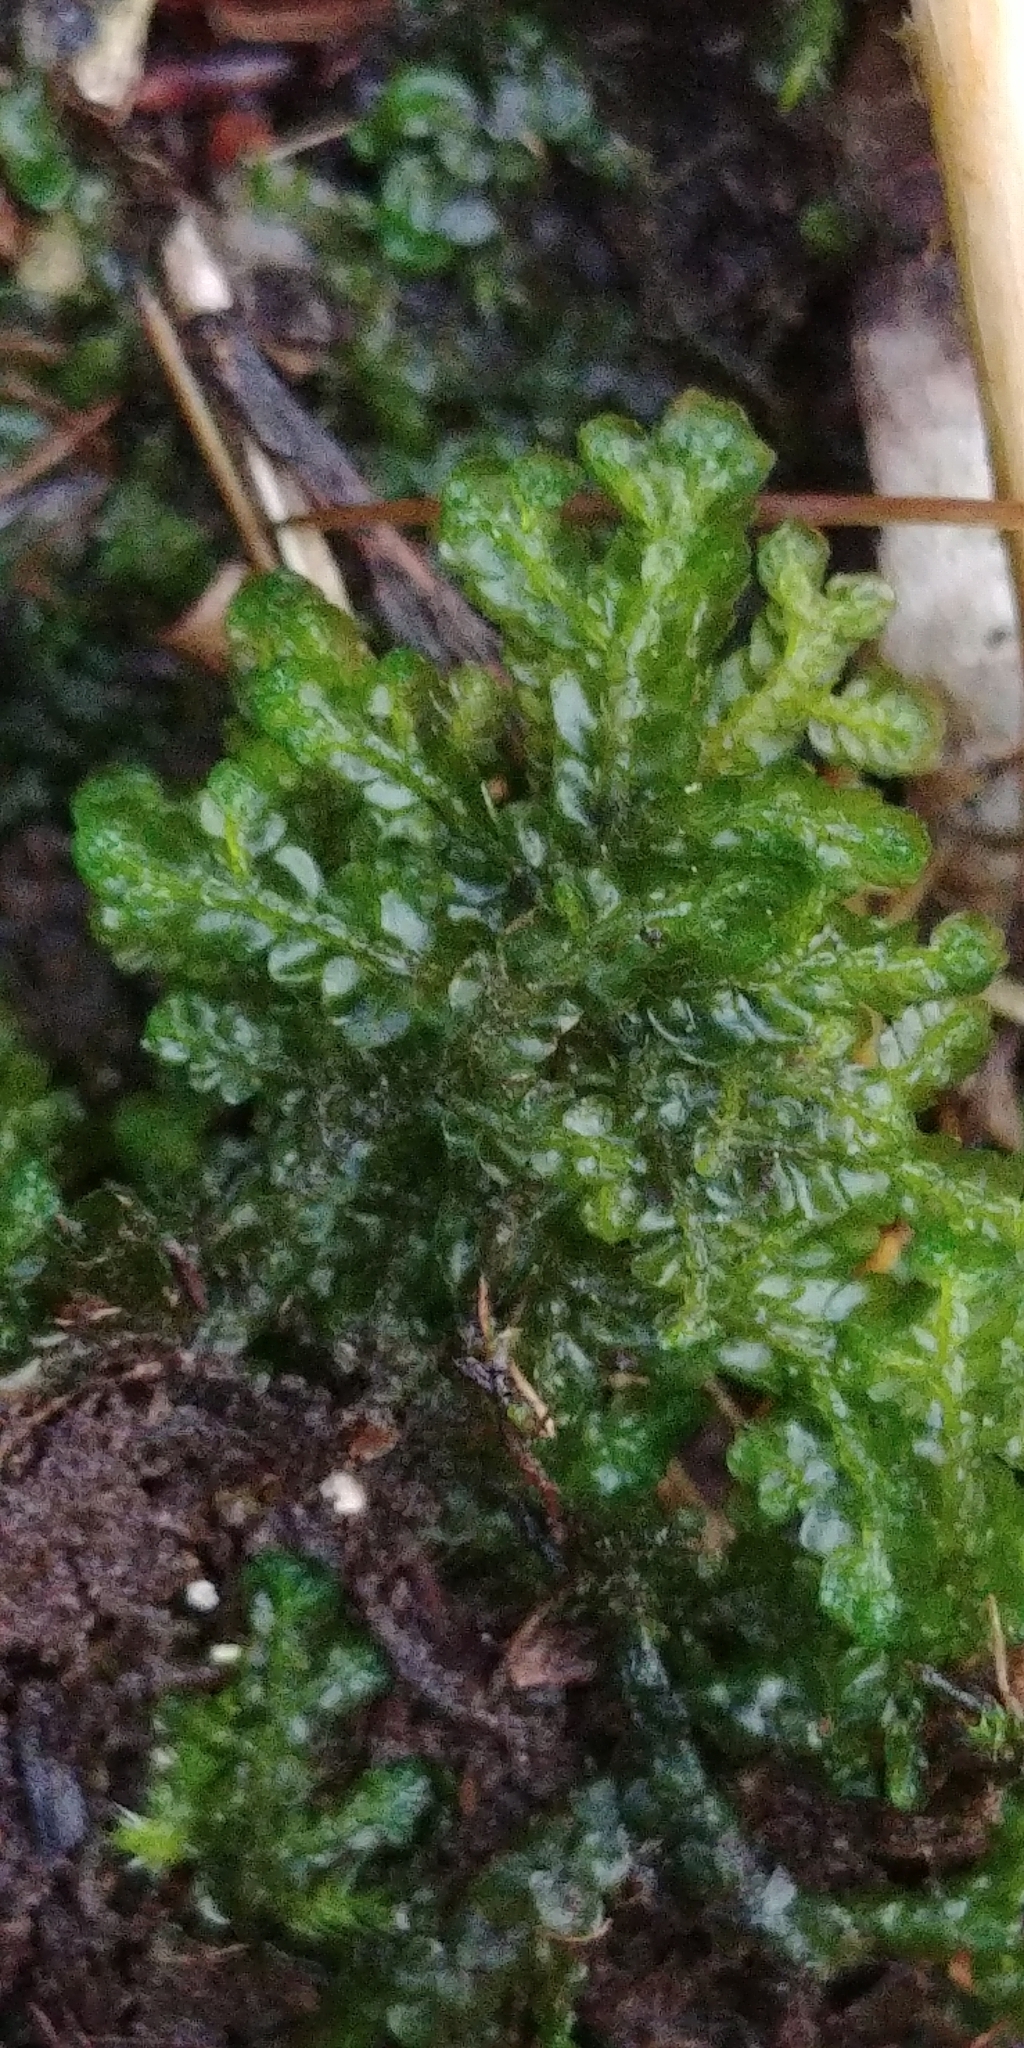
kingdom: Plantae
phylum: Marchantiophyta
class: Jungermanniopsida
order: Jungermanniales
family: Lophocoleaceae
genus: Chiloscyphus
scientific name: Chiloscyphus polyanthos
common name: Square-leaved crestwort
